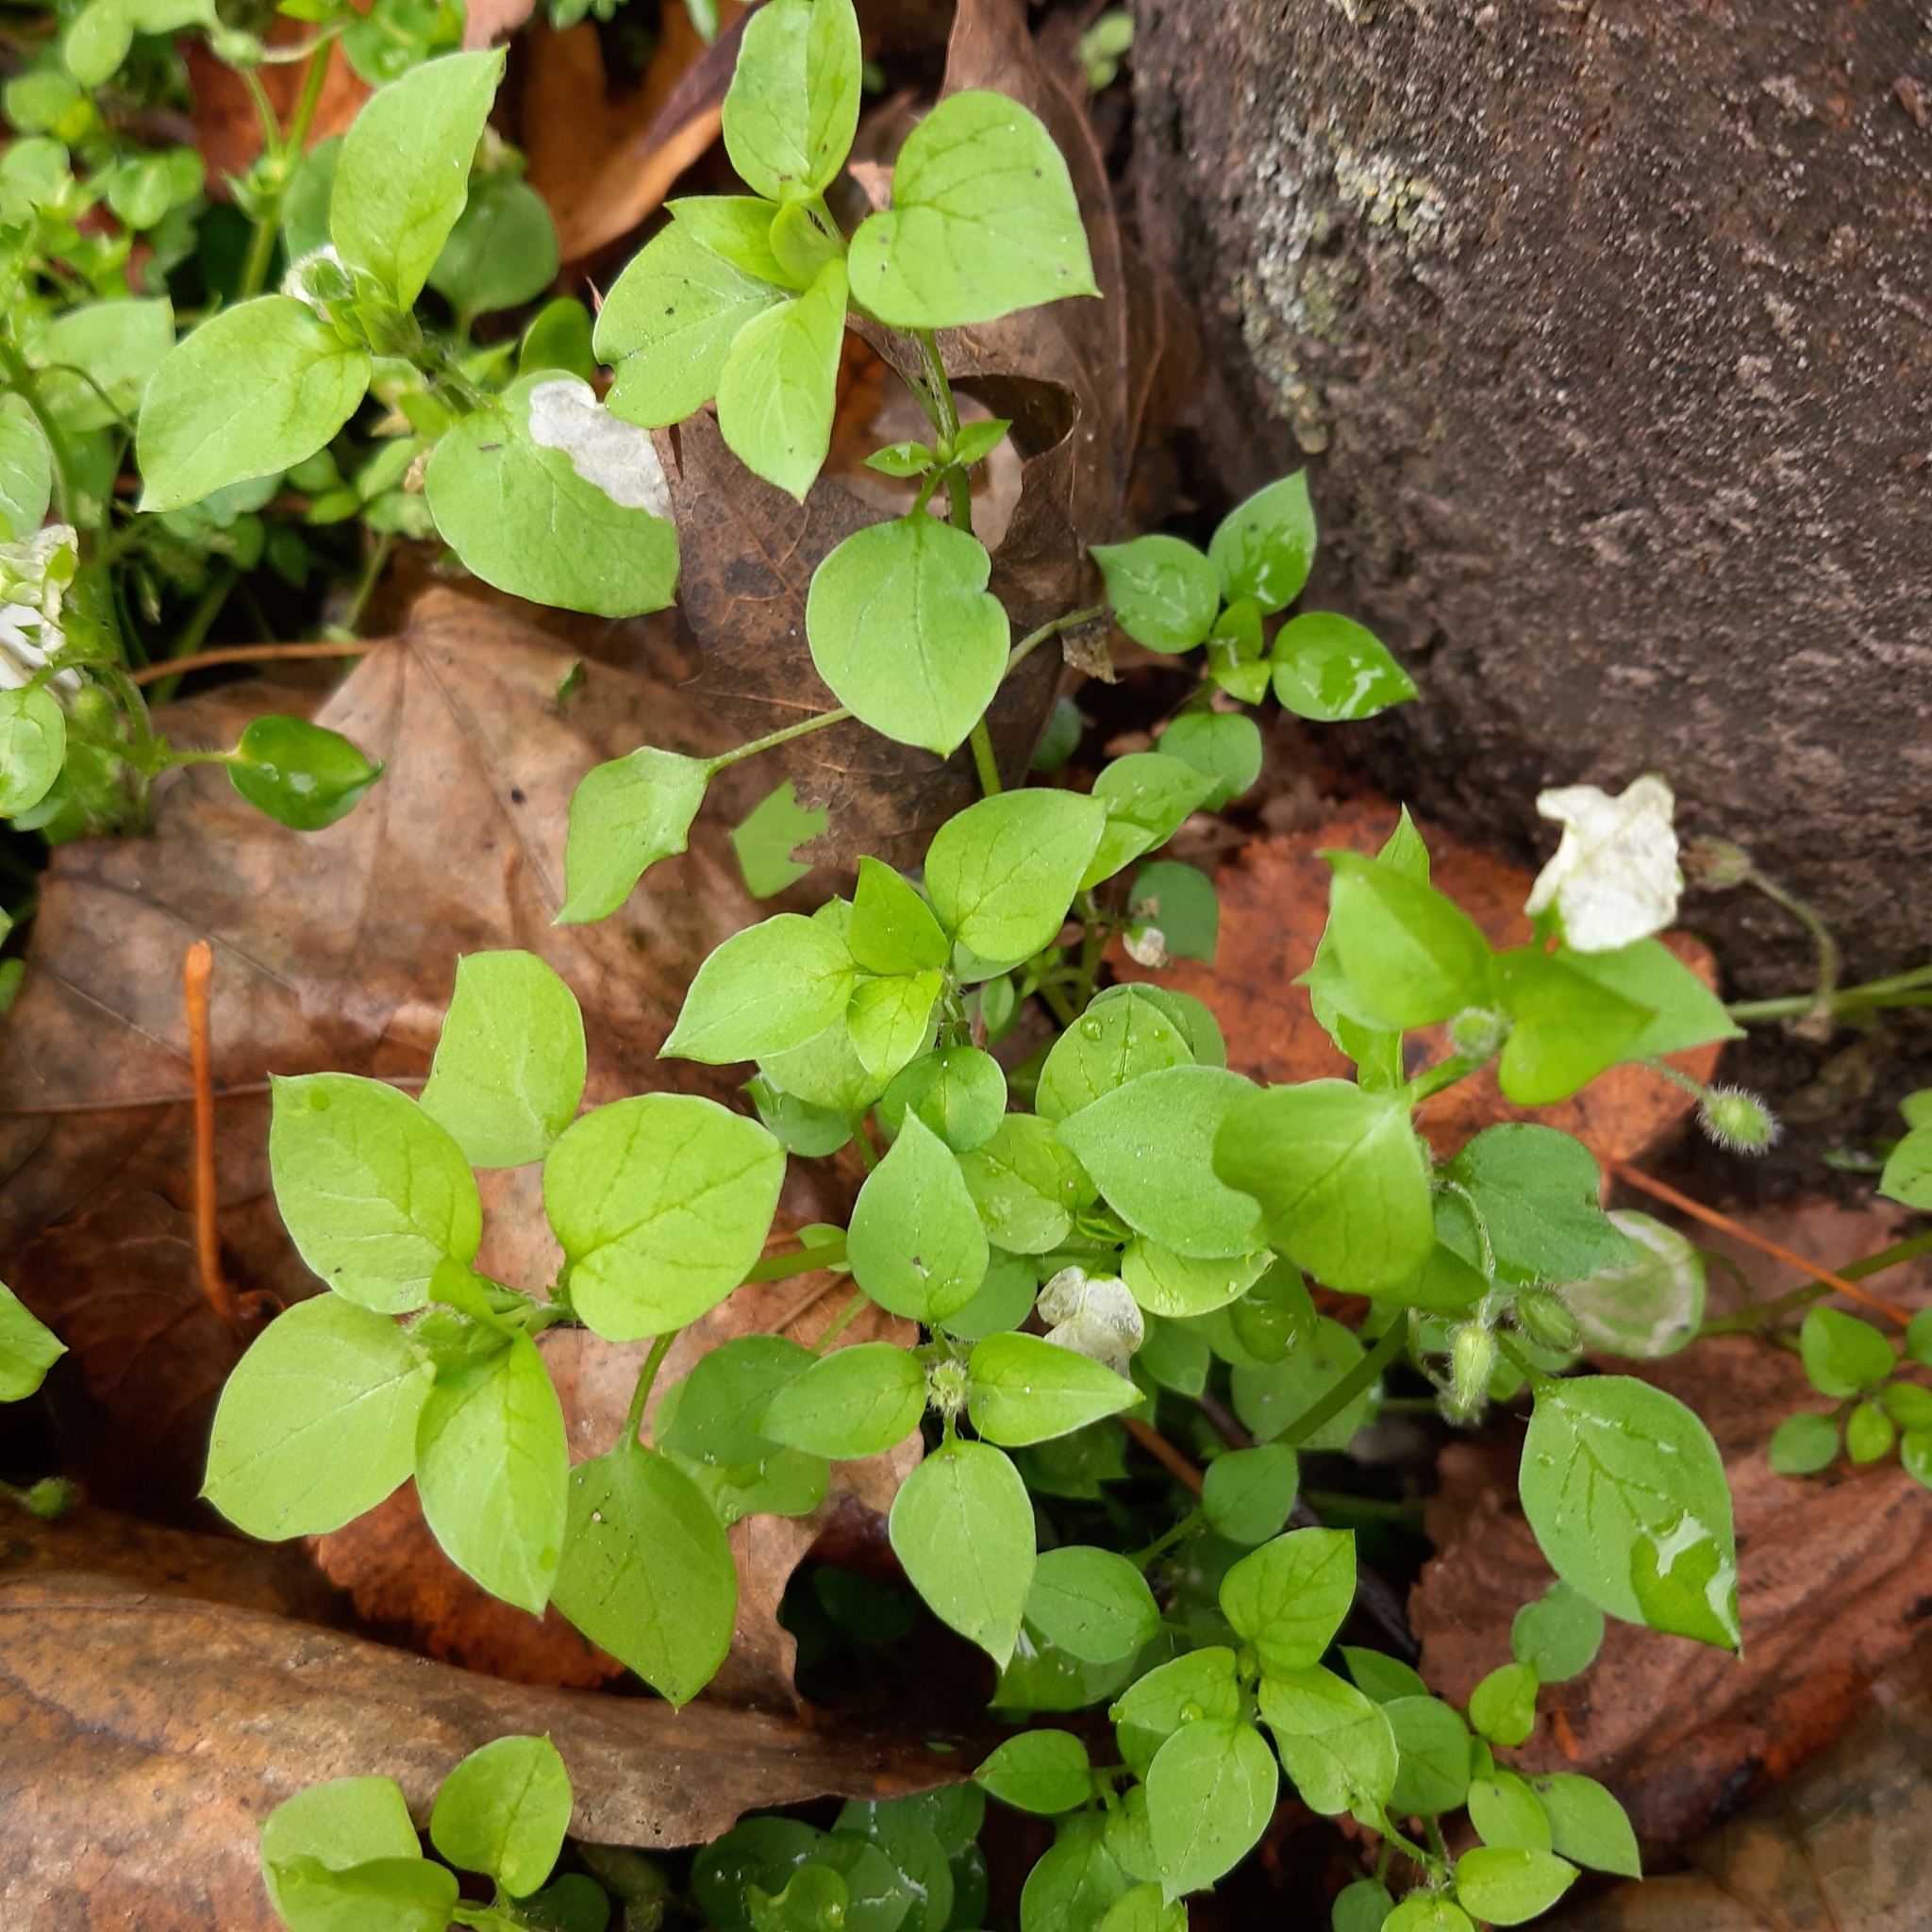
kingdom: Plantae
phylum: Tracheophyta
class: Magnoliopsida
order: Caryophyllales
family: Caryophyllaceae
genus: Stellaria
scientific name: Stellaria media
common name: Common chickweed
